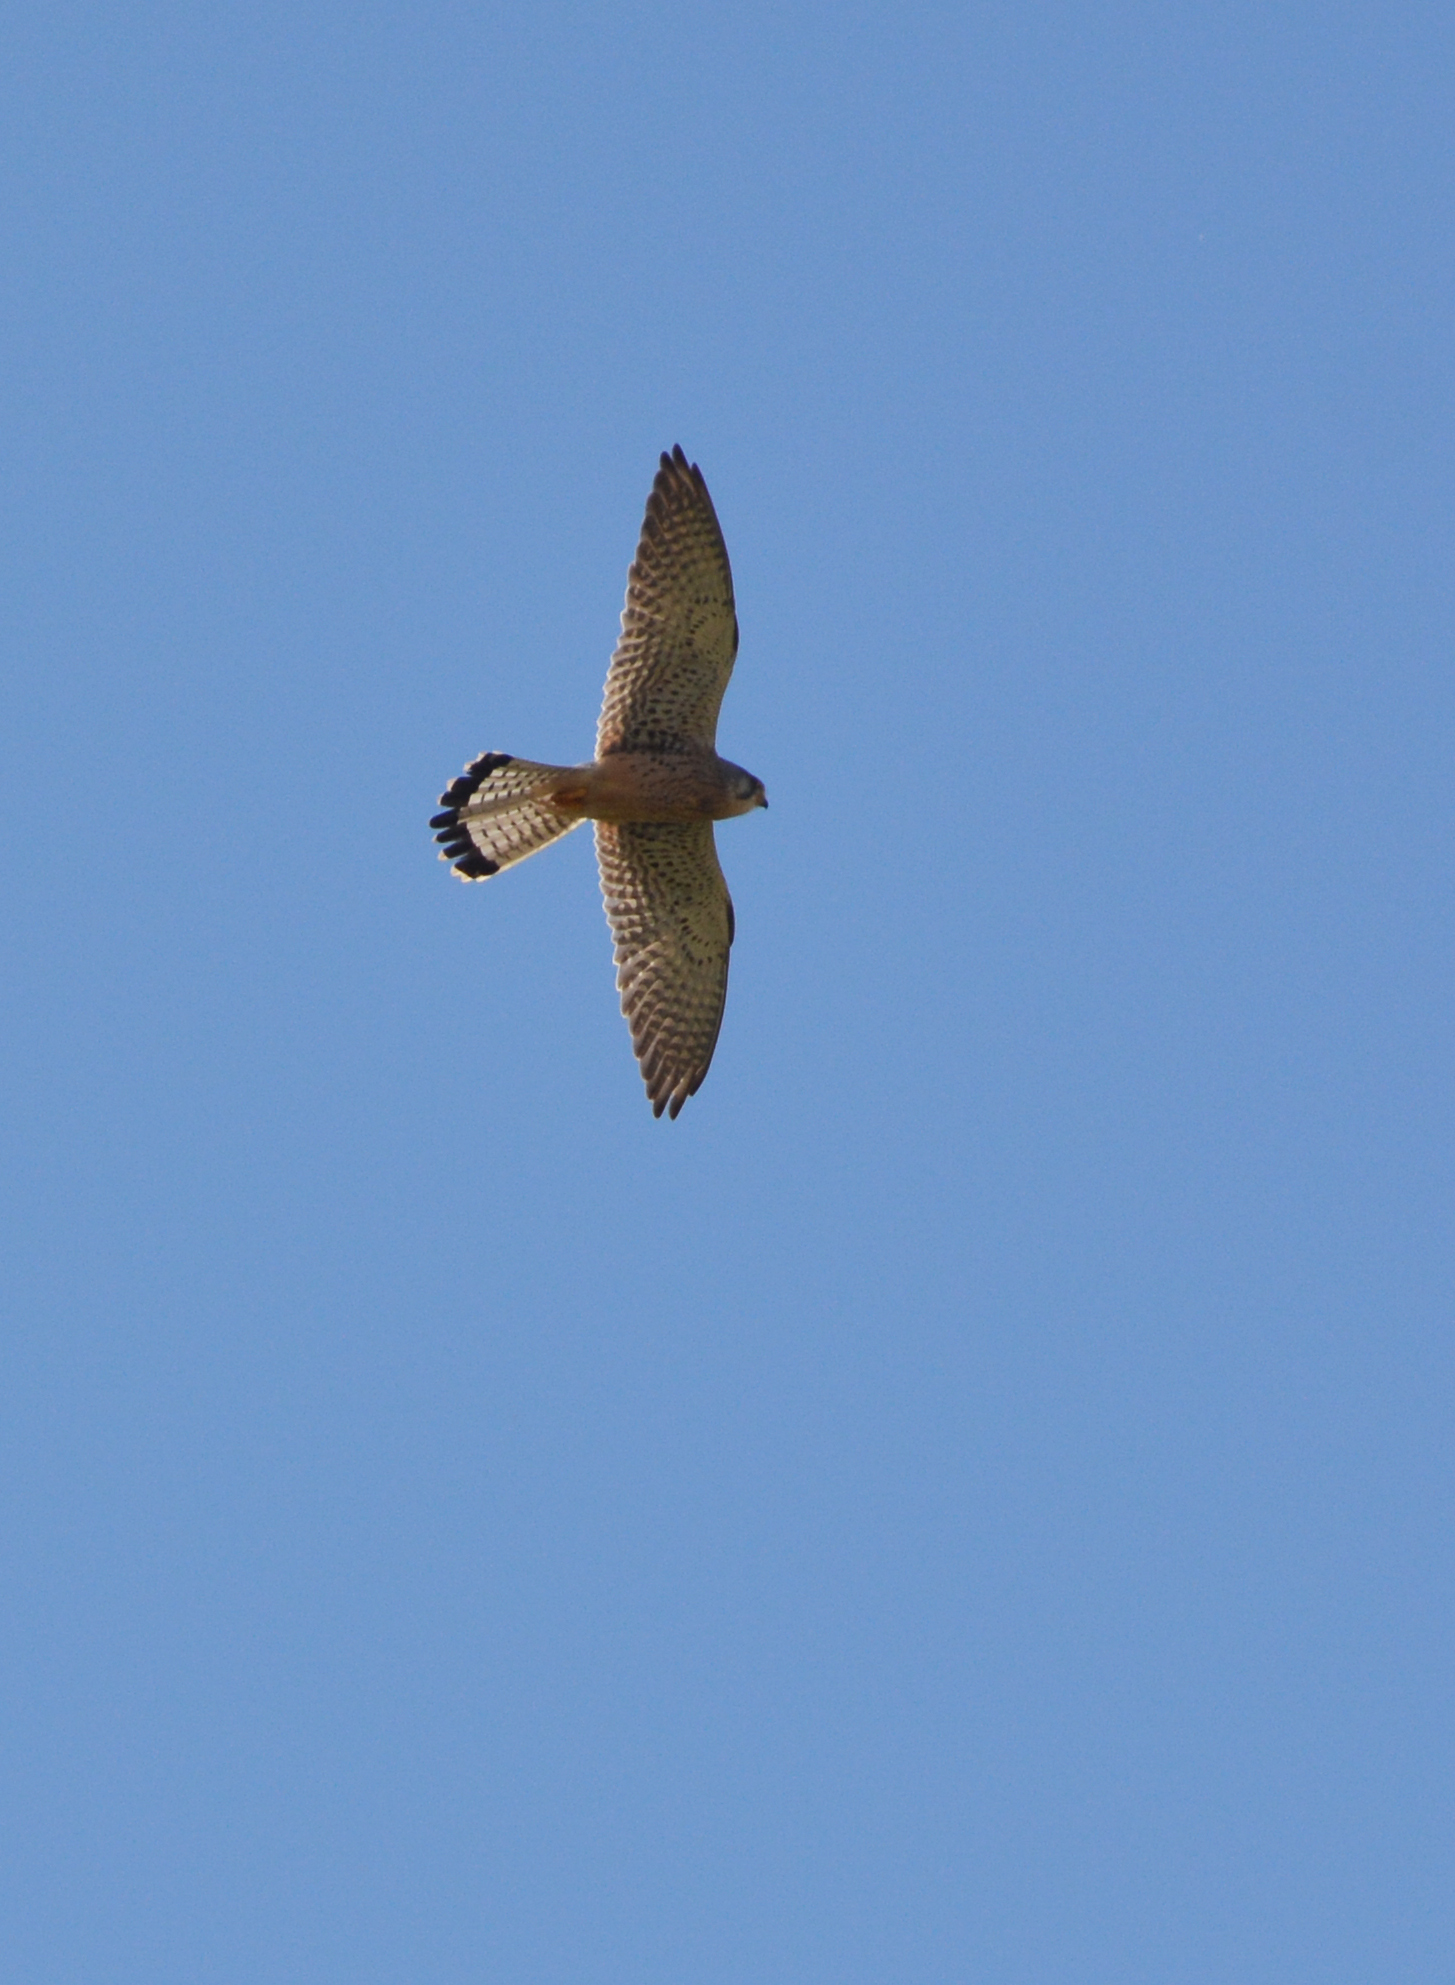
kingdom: Animalia
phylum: Chordata
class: Aves
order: Falconiformes
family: Falconidae
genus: Falco
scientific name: Falco tinnunculus
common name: Common kestrel
